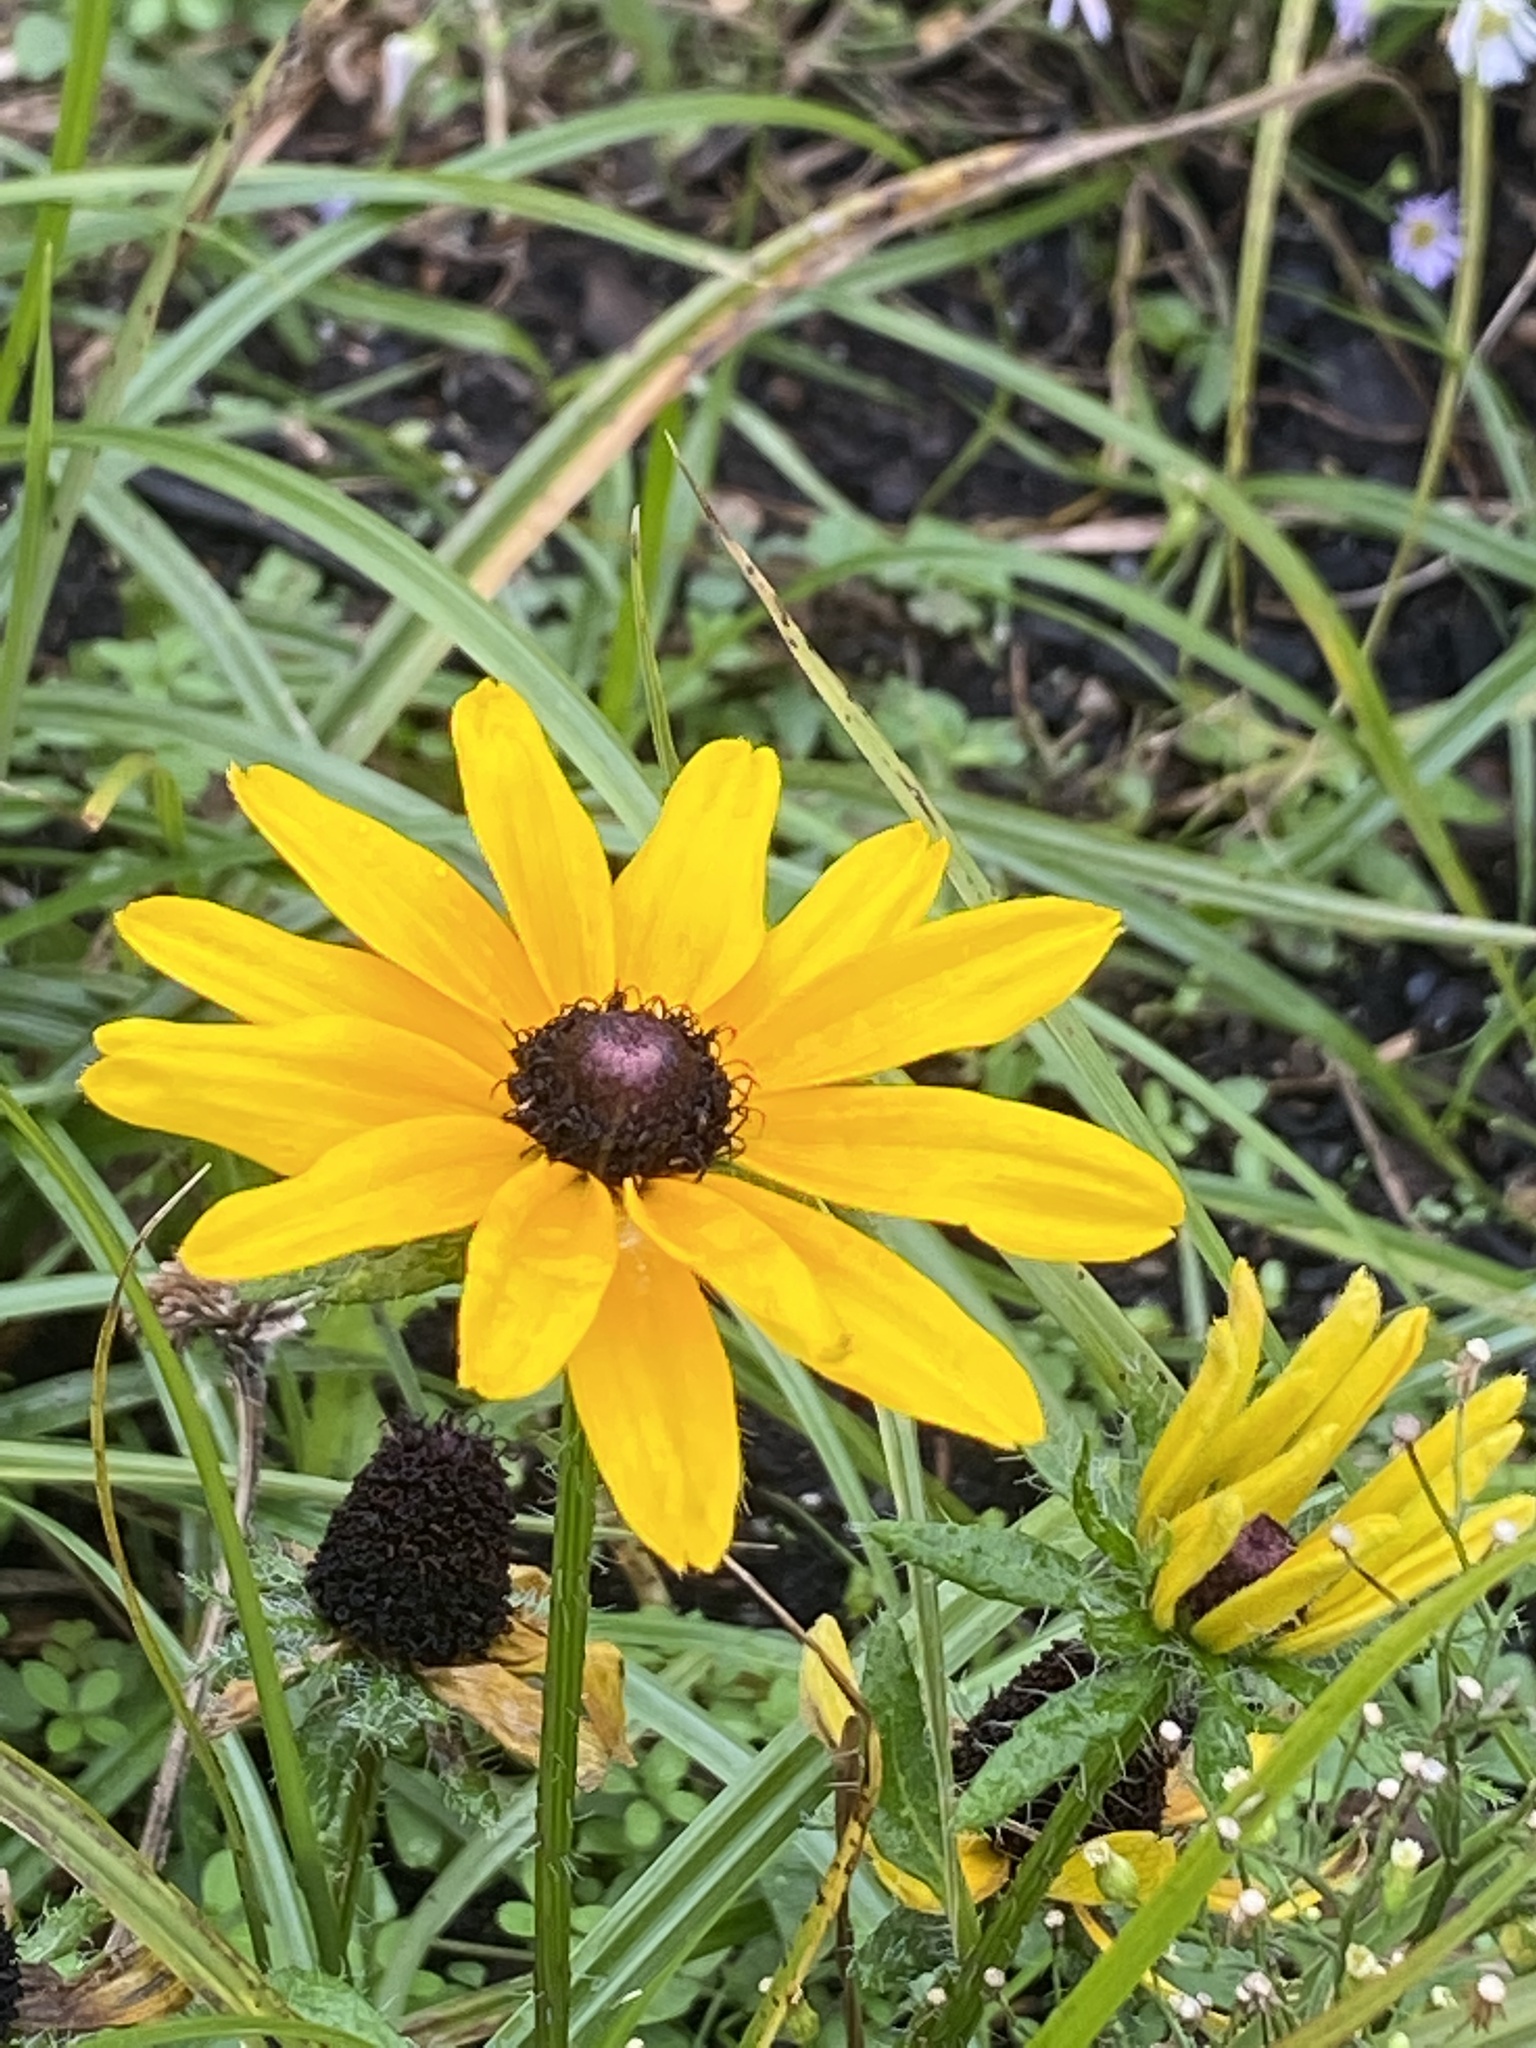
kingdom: Plantae
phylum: Tracheophyta
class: Magnoliopsida
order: Asterales
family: Asteraceae
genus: Rudbeckia
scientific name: Rudbeckia hirta
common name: Black-eyed-susan
